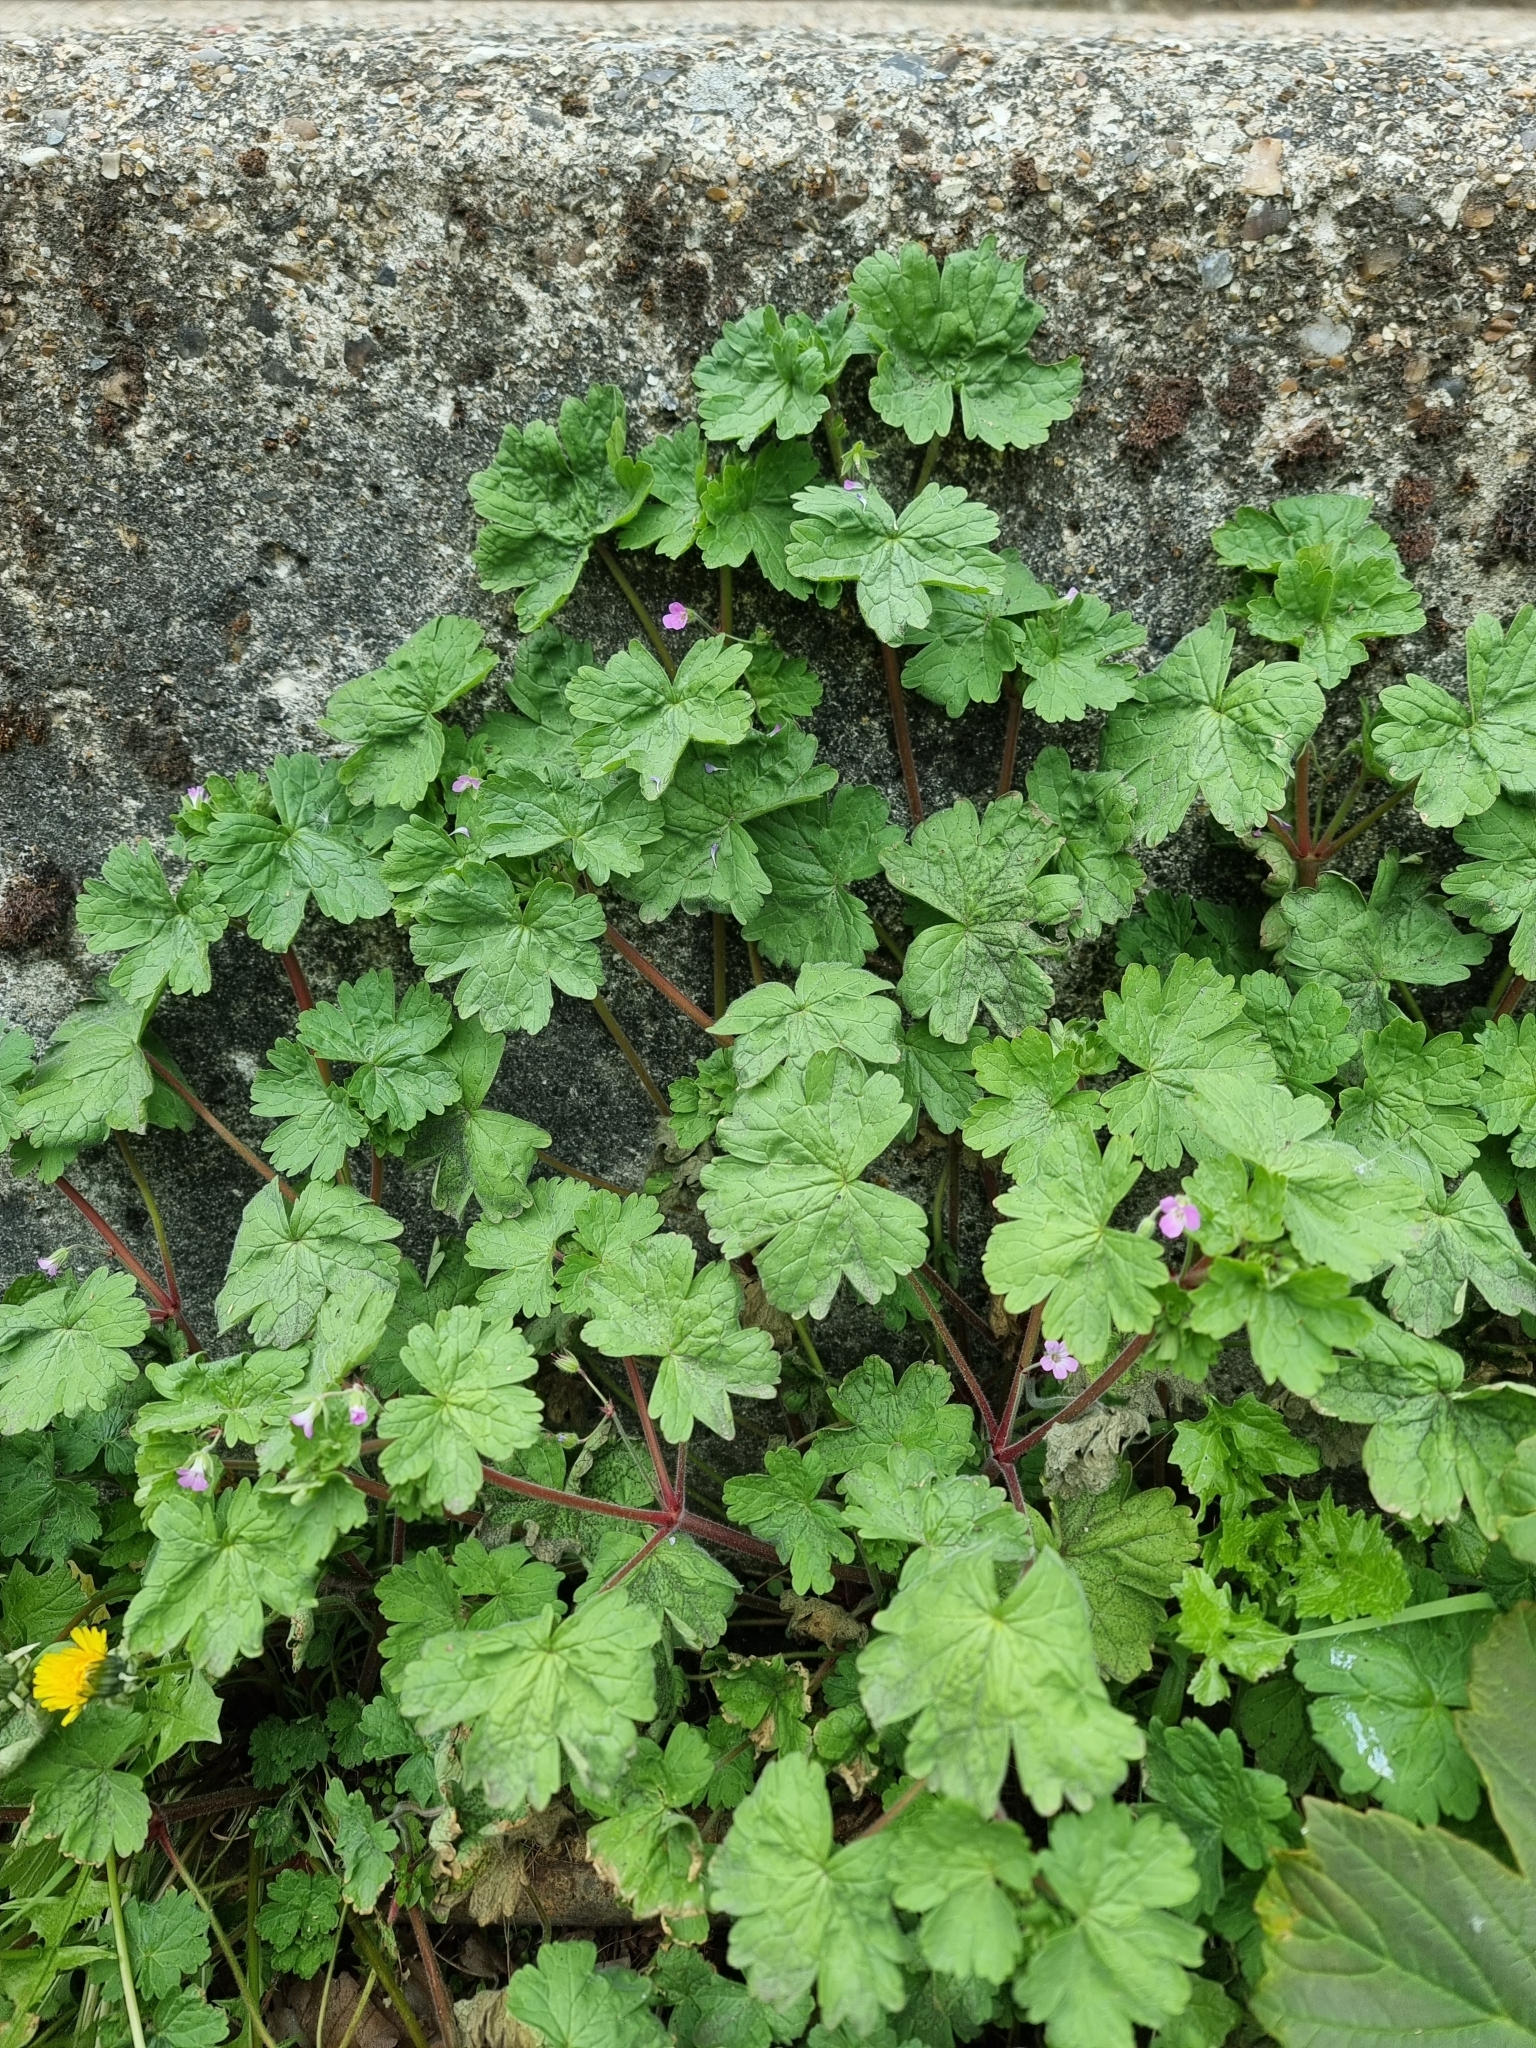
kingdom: Plantae
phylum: Tracheophyta
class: Magnoliopsida
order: Geraniales
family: Geraniaceae
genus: Geranium
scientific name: Geranium rotundifolium
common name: Round-leaved crane's-bill
